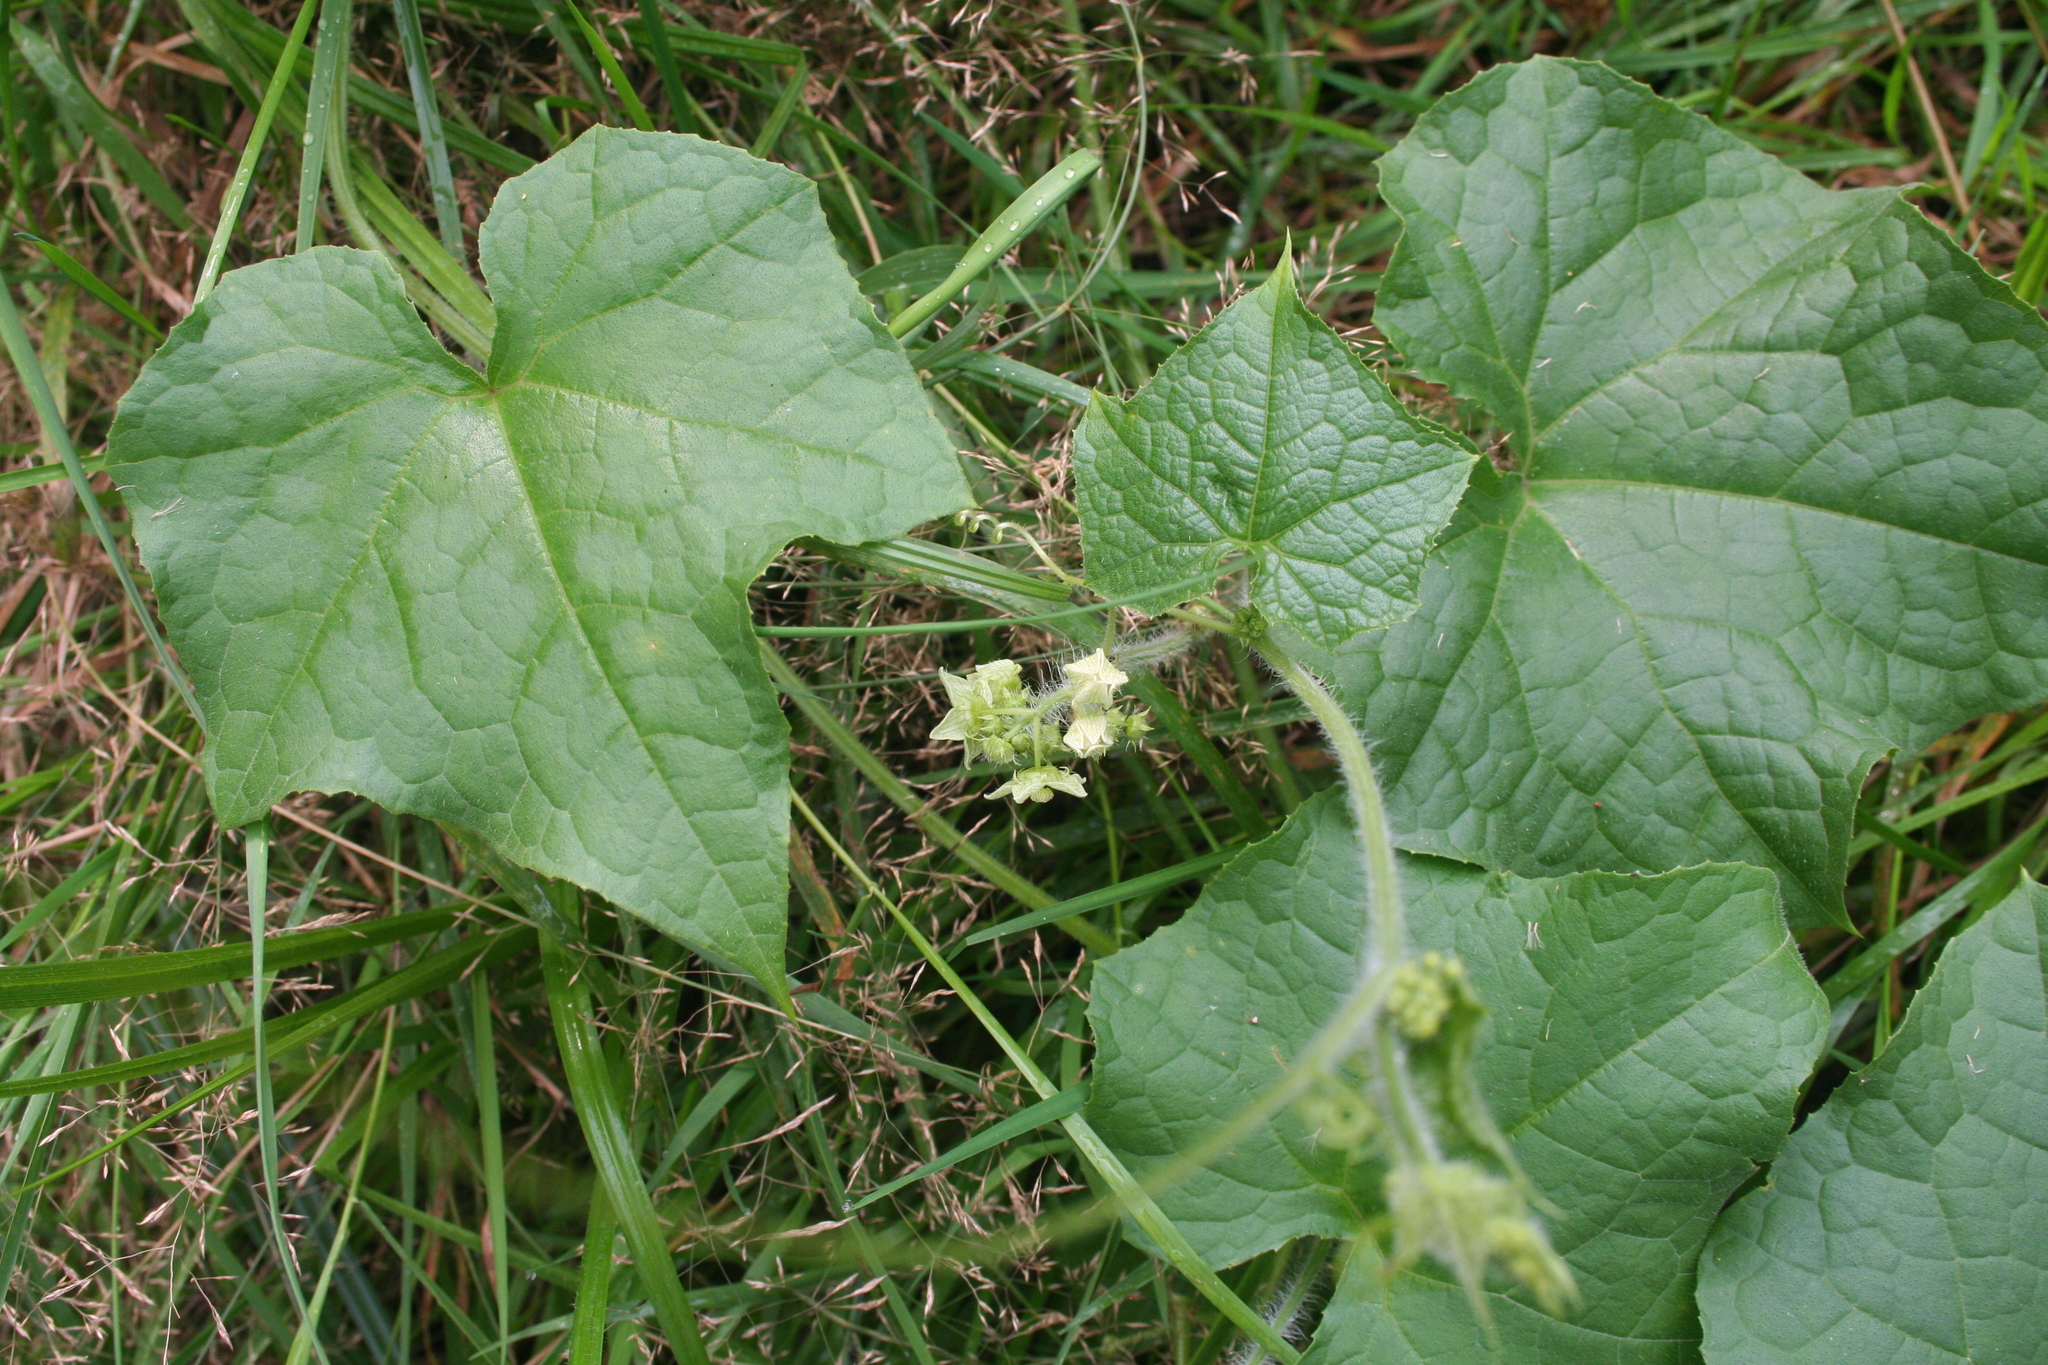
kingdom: Plantae
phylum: Tracheophyta
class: Magnoliopsida
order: Cucurbitales
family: Cucurbitaceae
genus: Sicyos
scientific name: Sicyos angulatus
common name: Angled burr cucumber
